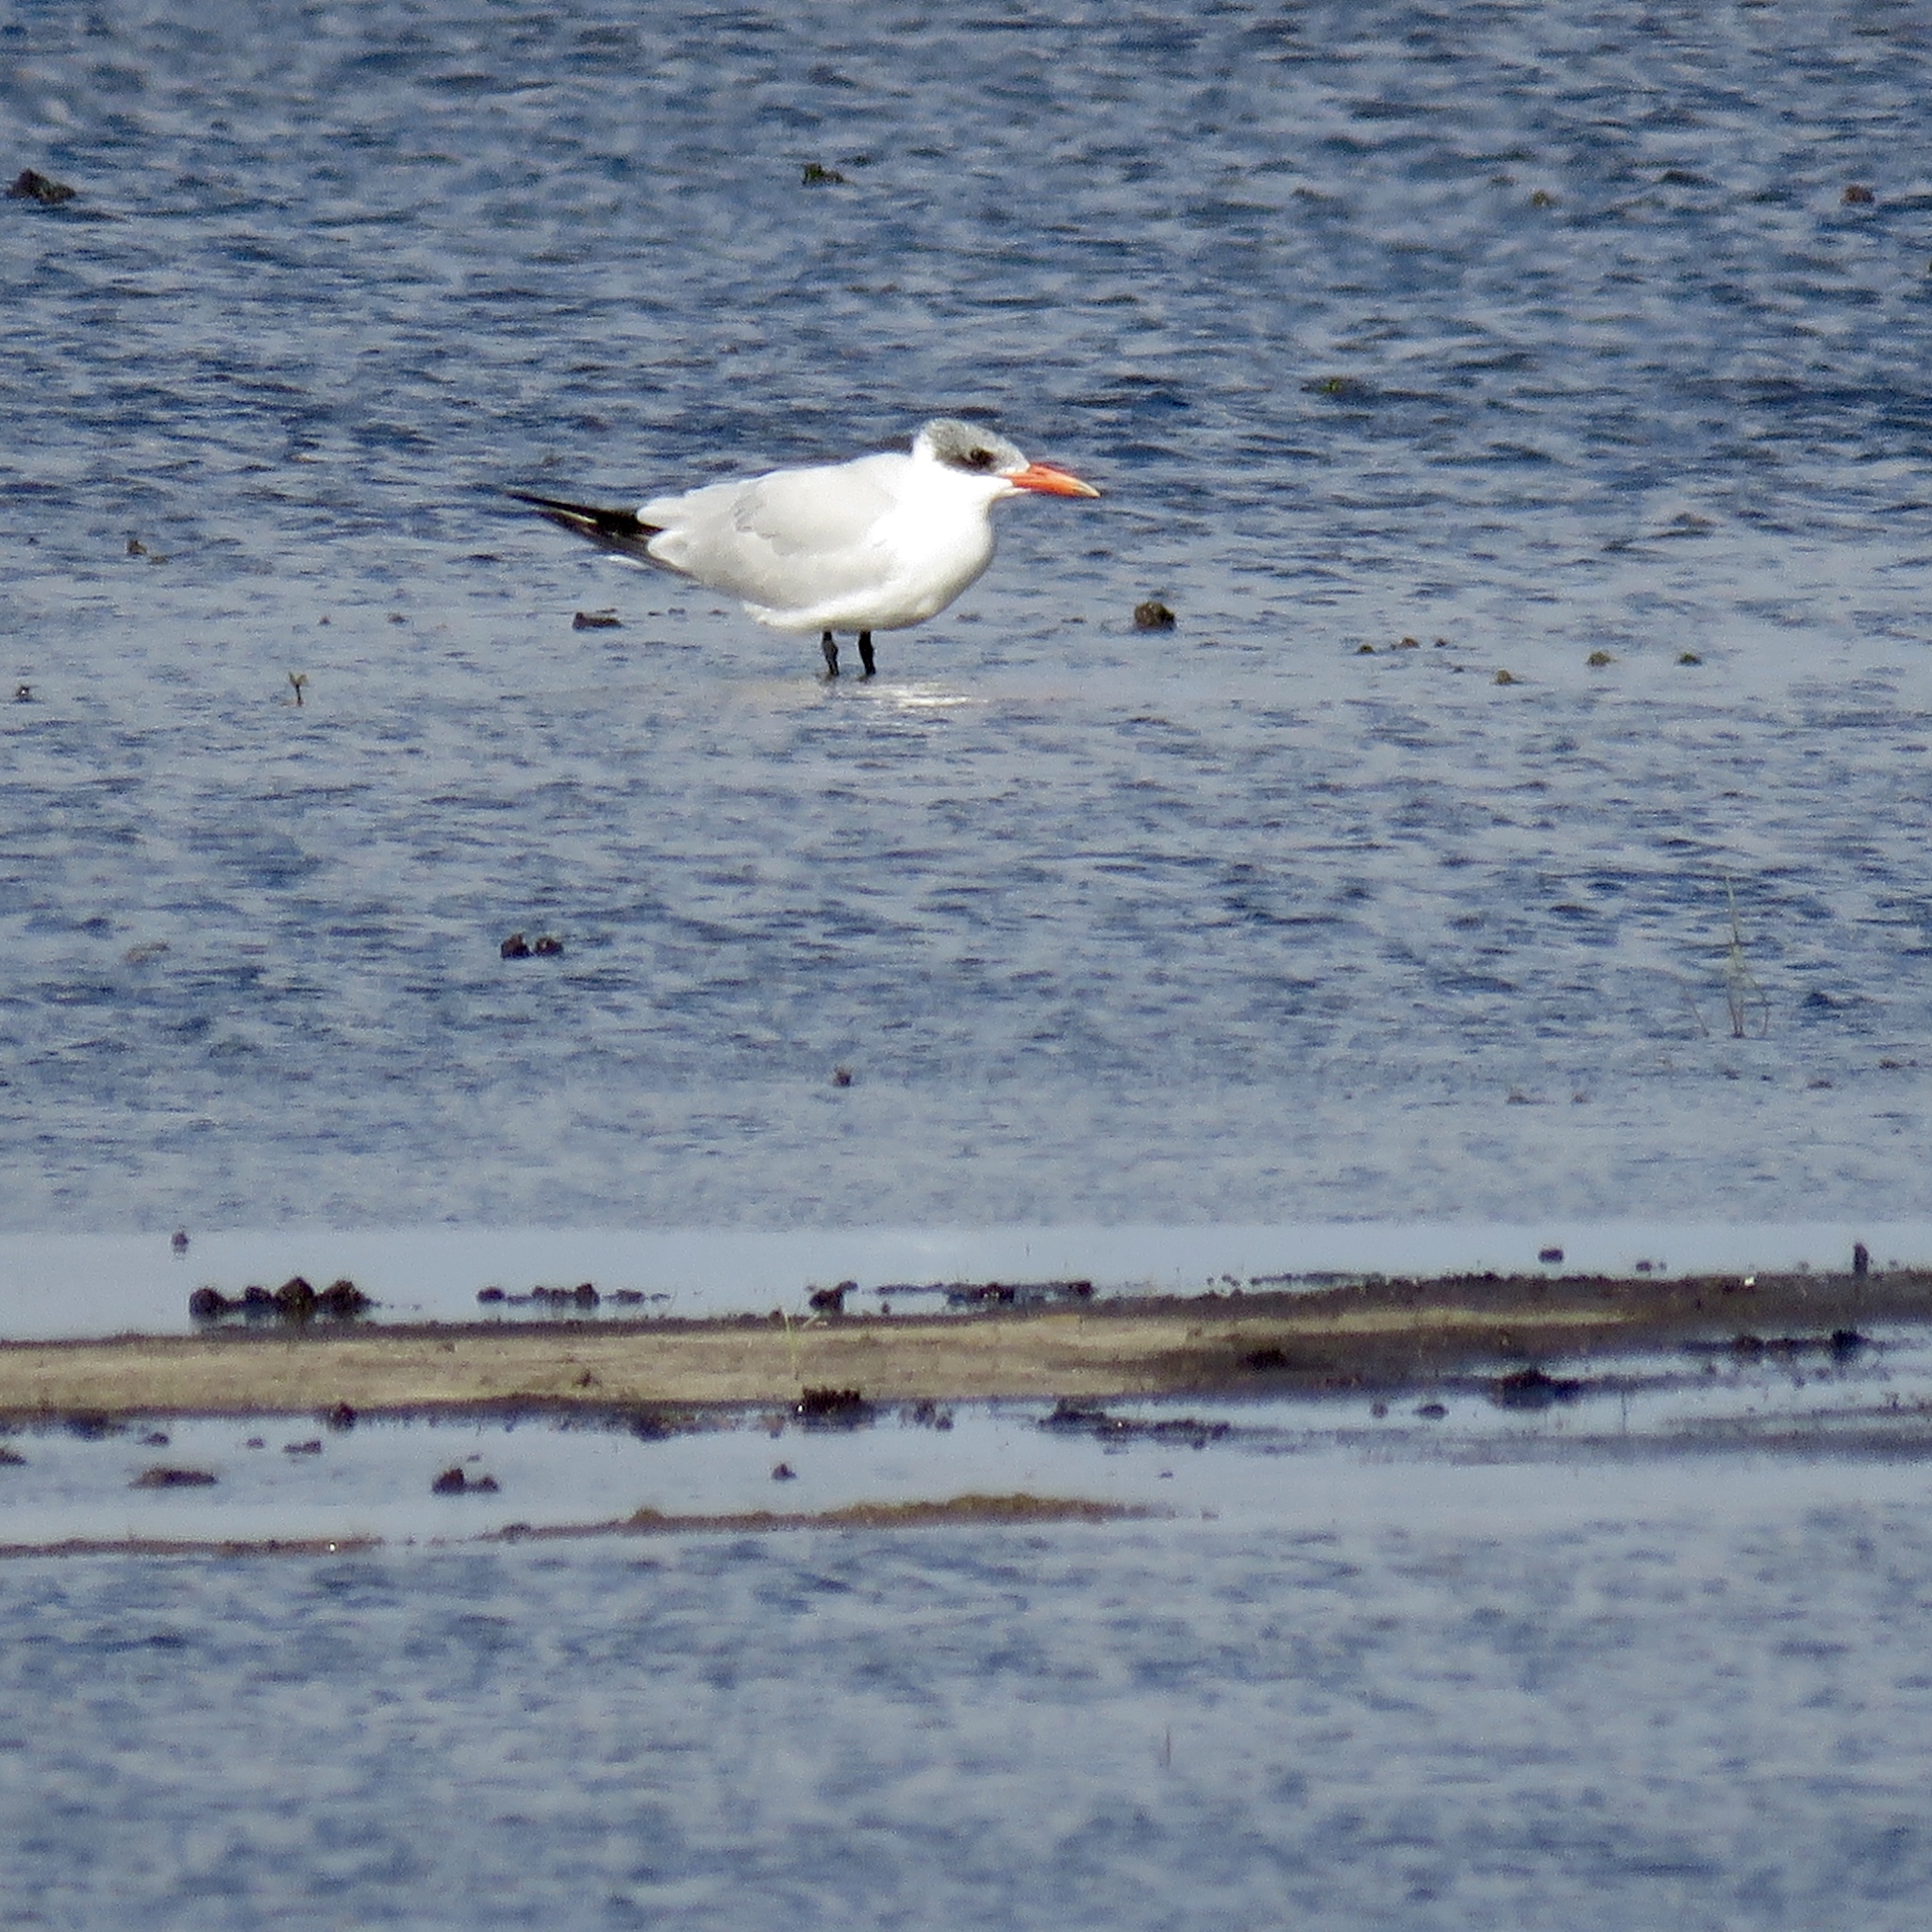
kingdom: Animalia
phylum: Chordata
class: Aves
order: Charadriiformes
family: Laridae
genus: Hydroprogne
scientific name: Hydroprogne caspia
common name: Caspian tern
